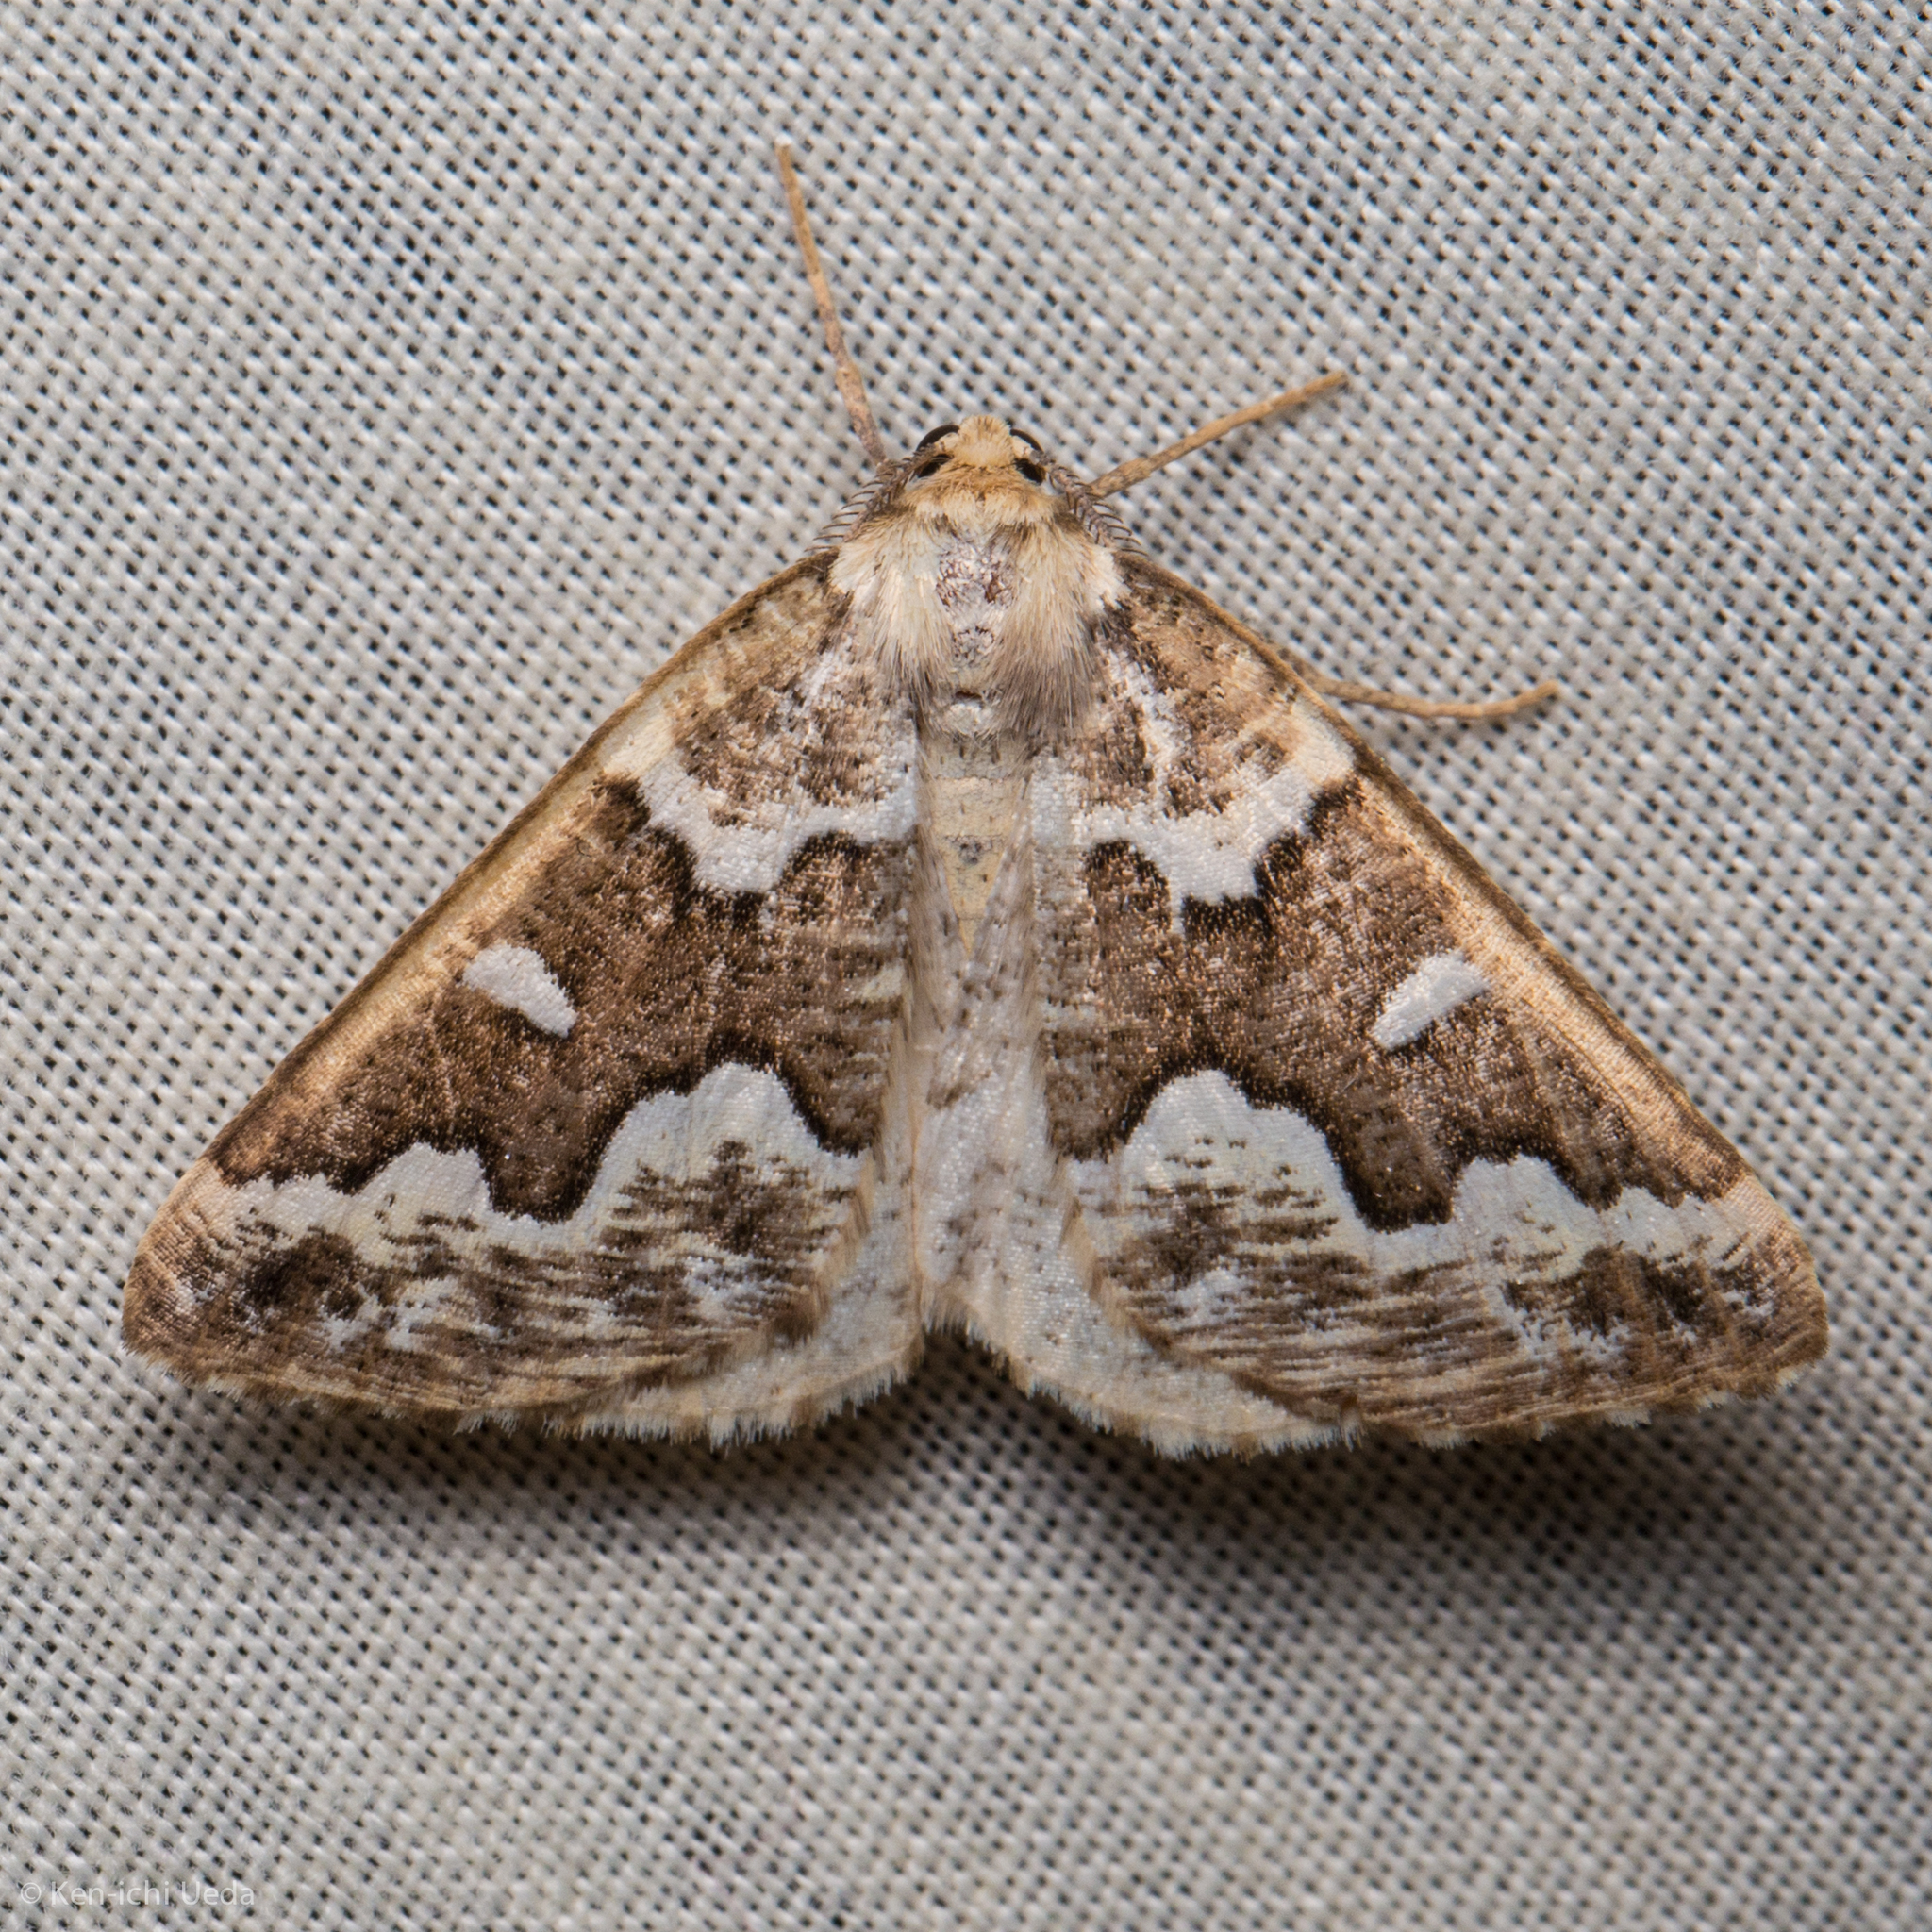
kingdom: Animalia
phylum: Arthropoda
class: Insecta
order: Lepidoptera
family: Geometridae
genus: Caripeta
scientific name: Caripeta divisata
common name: Gray spruce looper
